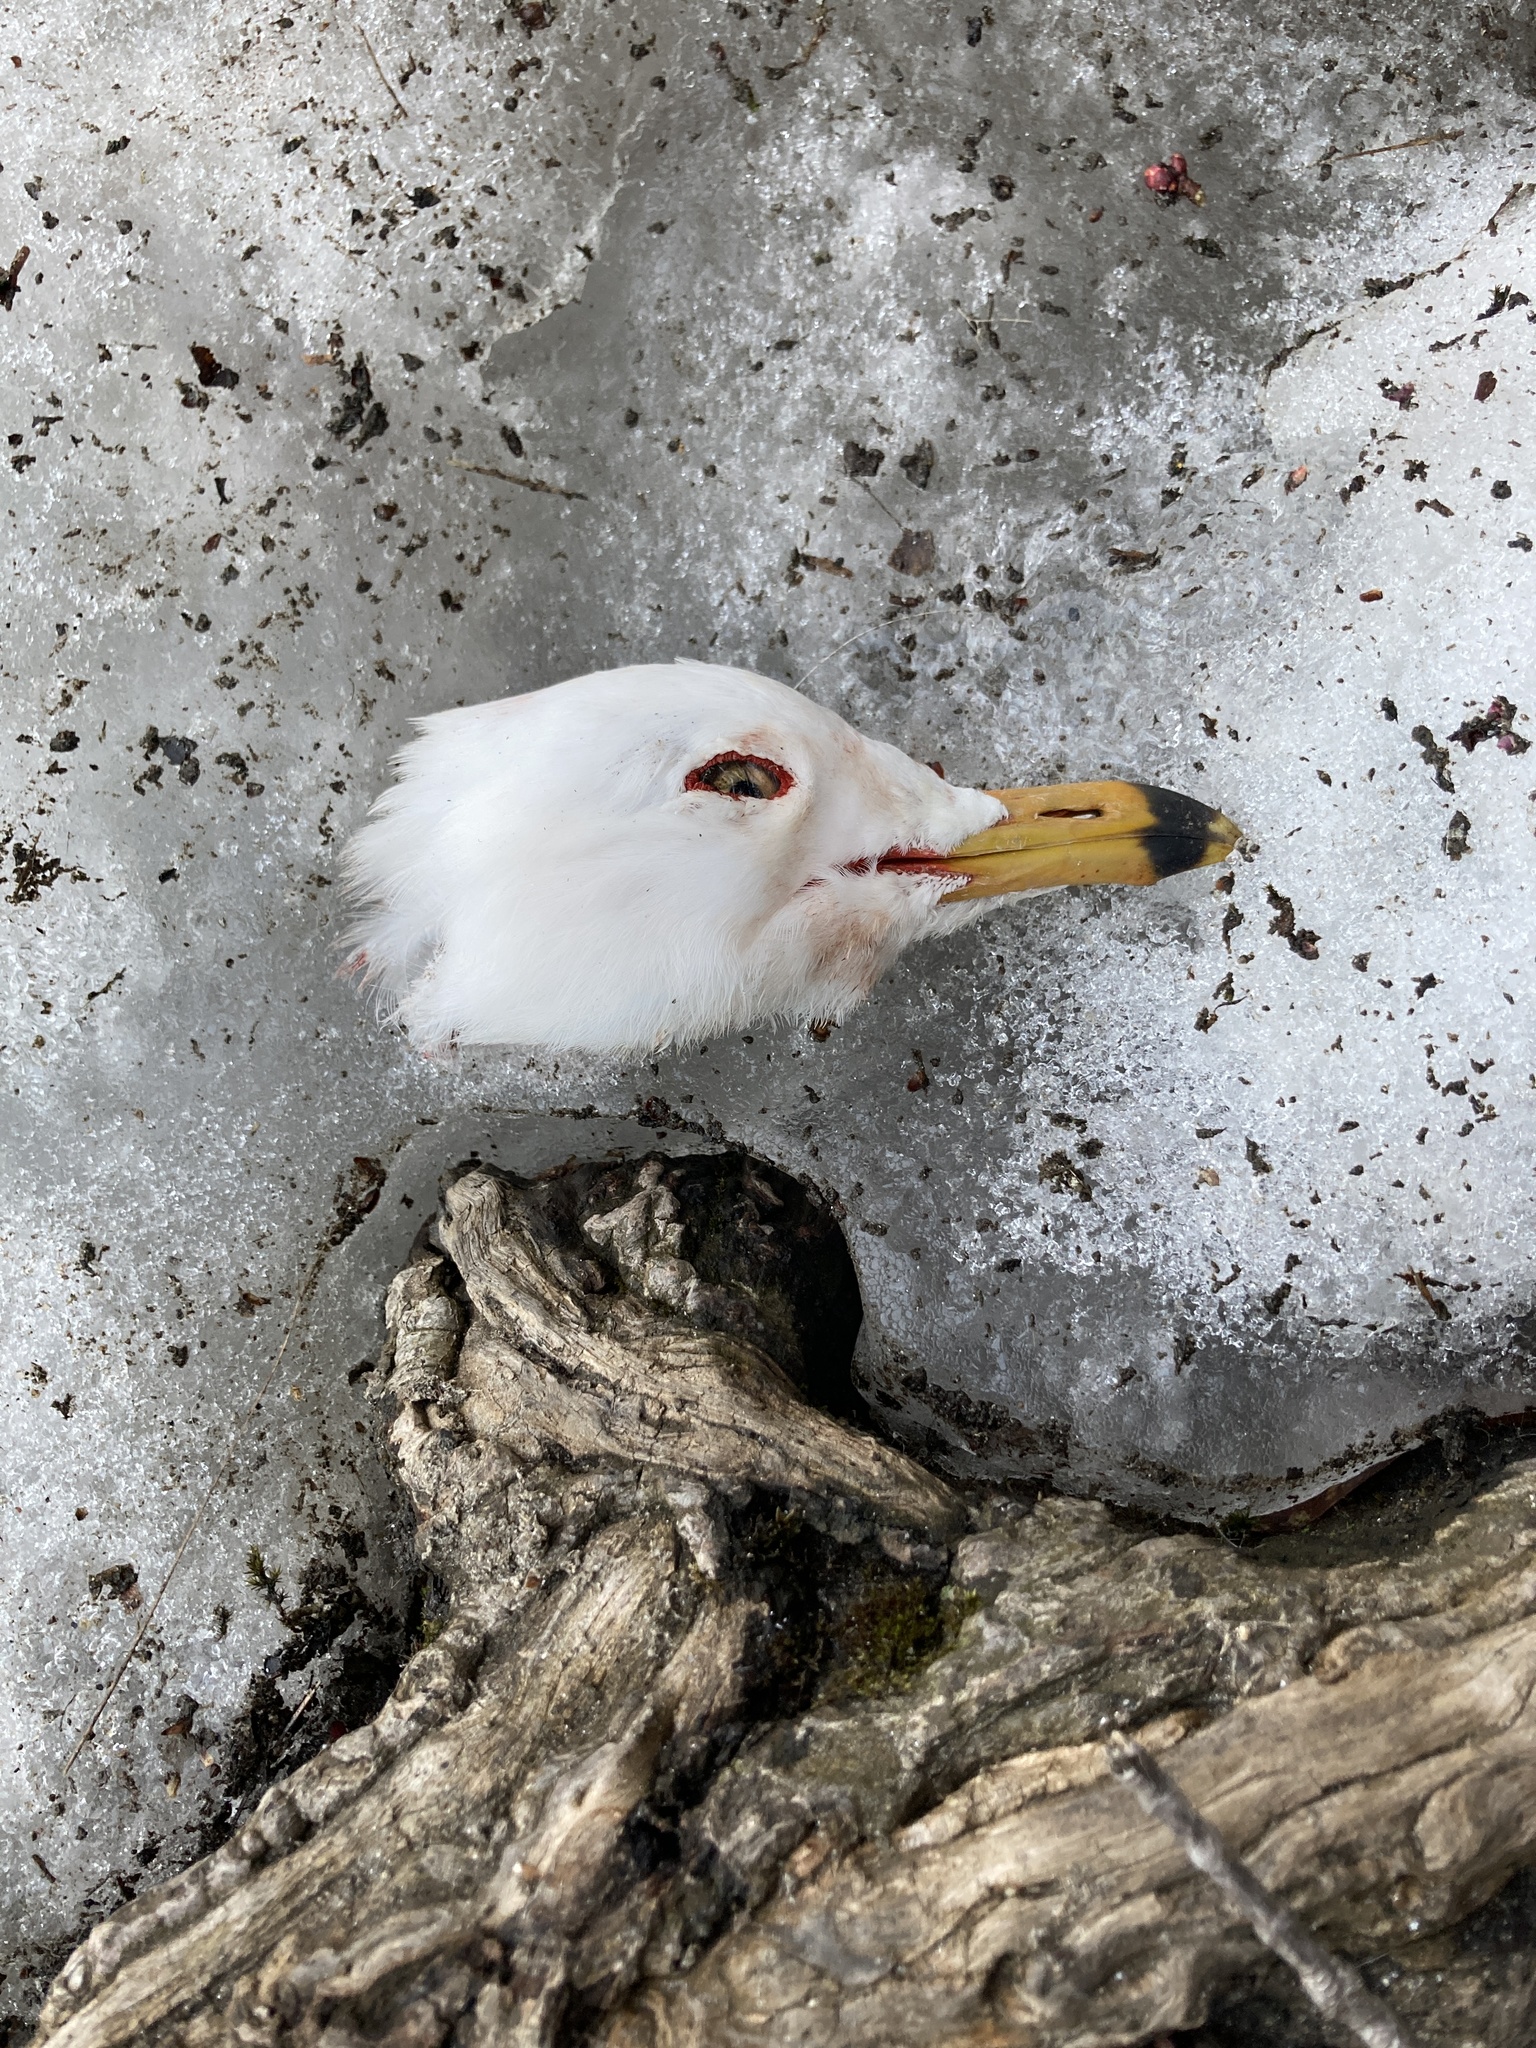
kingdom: Animalia
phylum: Chordata
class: Aves
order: Charadriiformes
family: Laridae
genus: Larus
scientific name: Larus delawarensis
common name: Ring-billed gull
